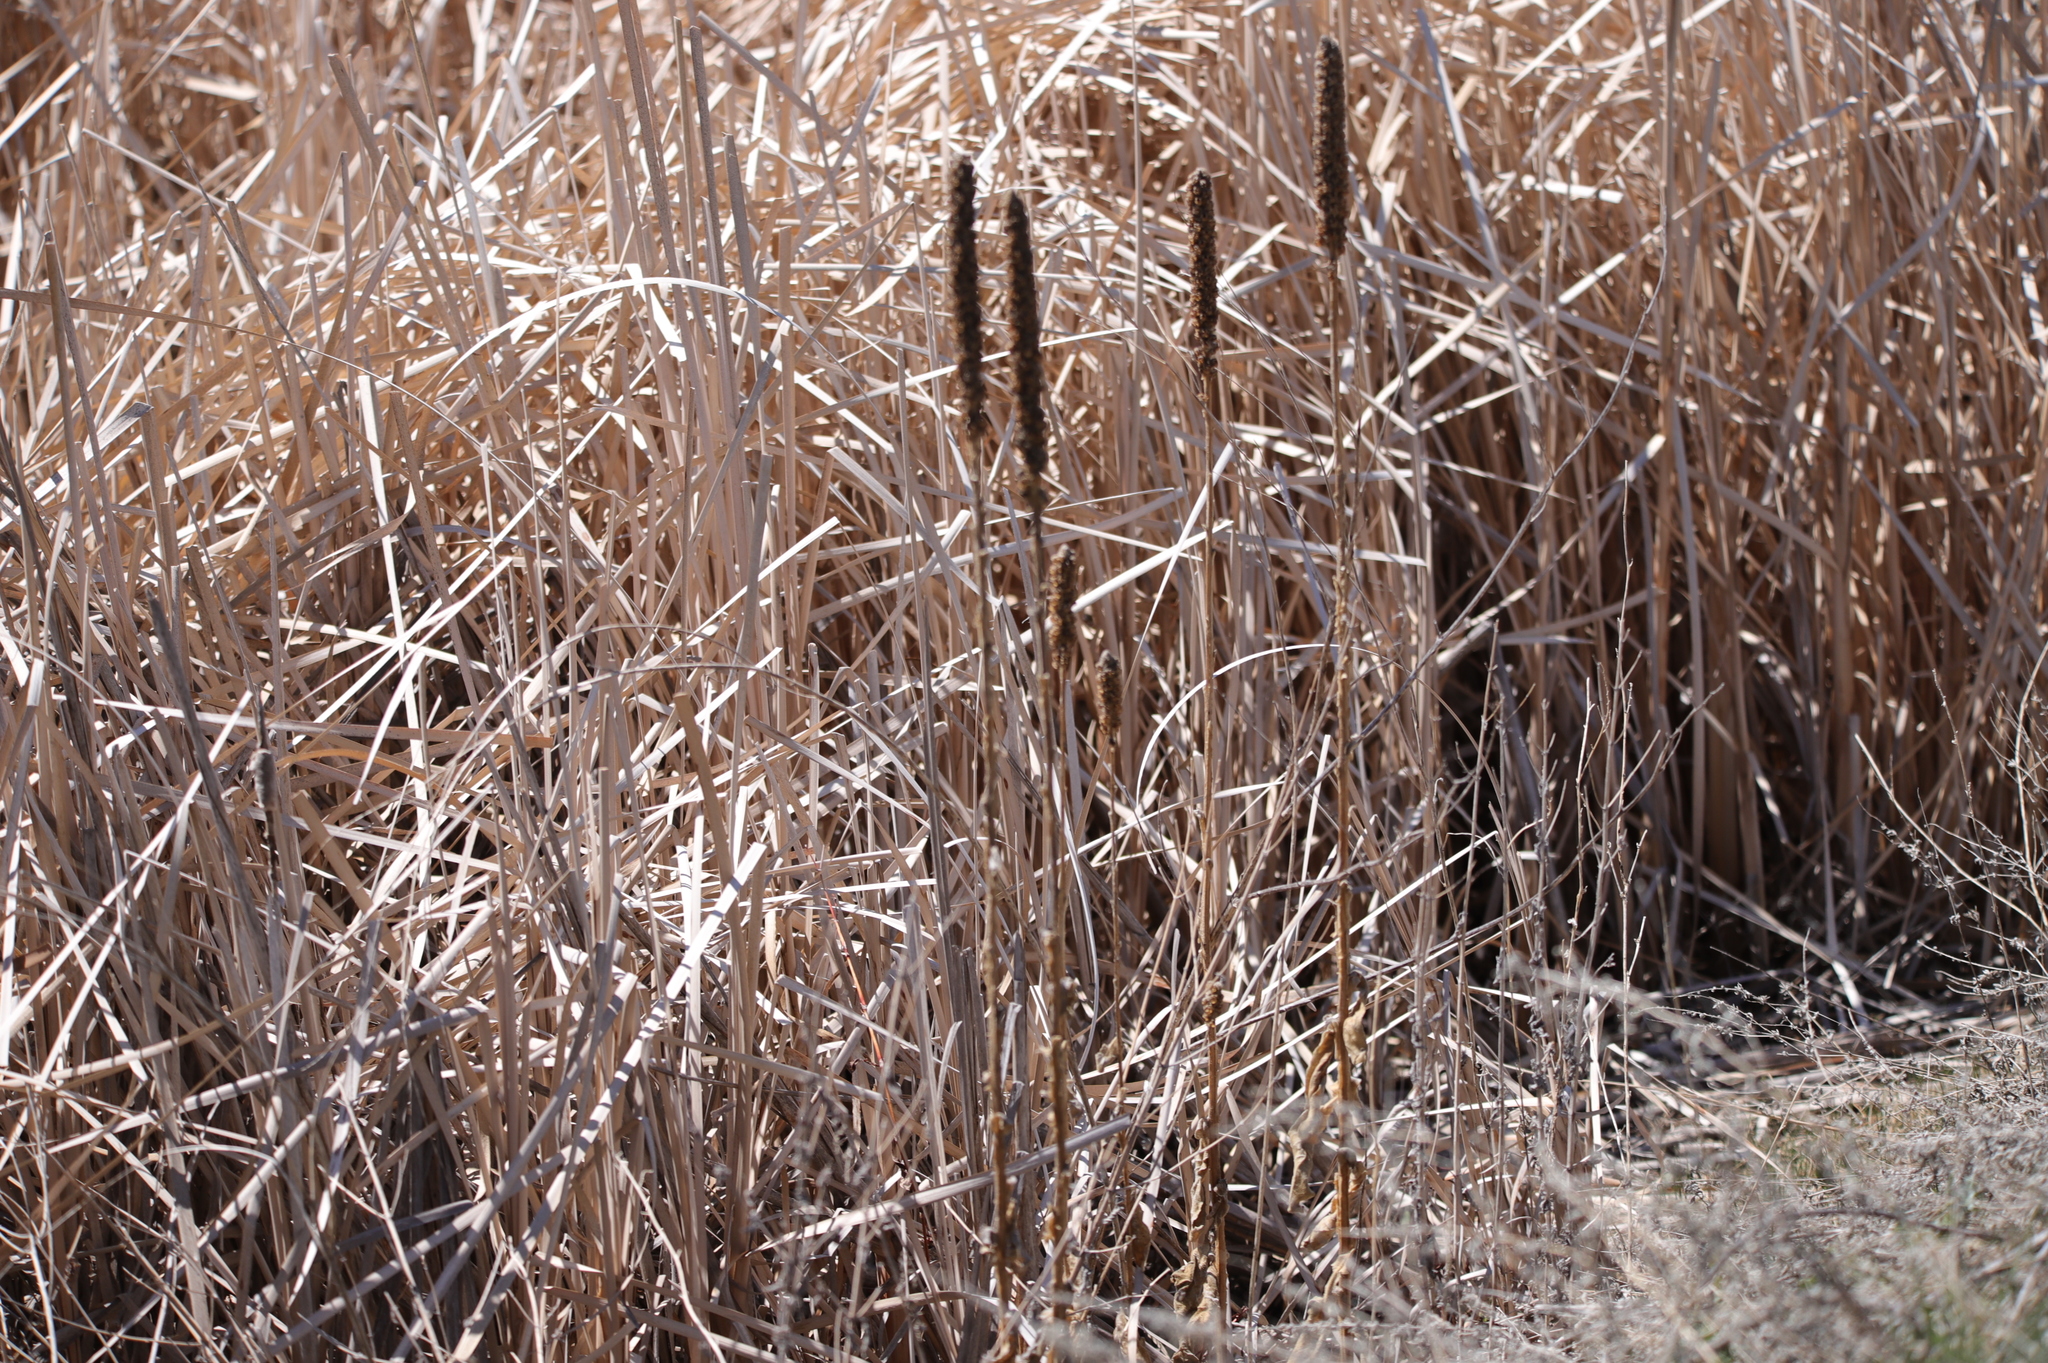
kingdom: Plantae
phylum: Tracheophyta
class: Magnoliopsida
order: Lamiales
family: Scrophulariaceae
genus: Verbascum
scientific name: Verbascum thapsus
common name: Common mullein
